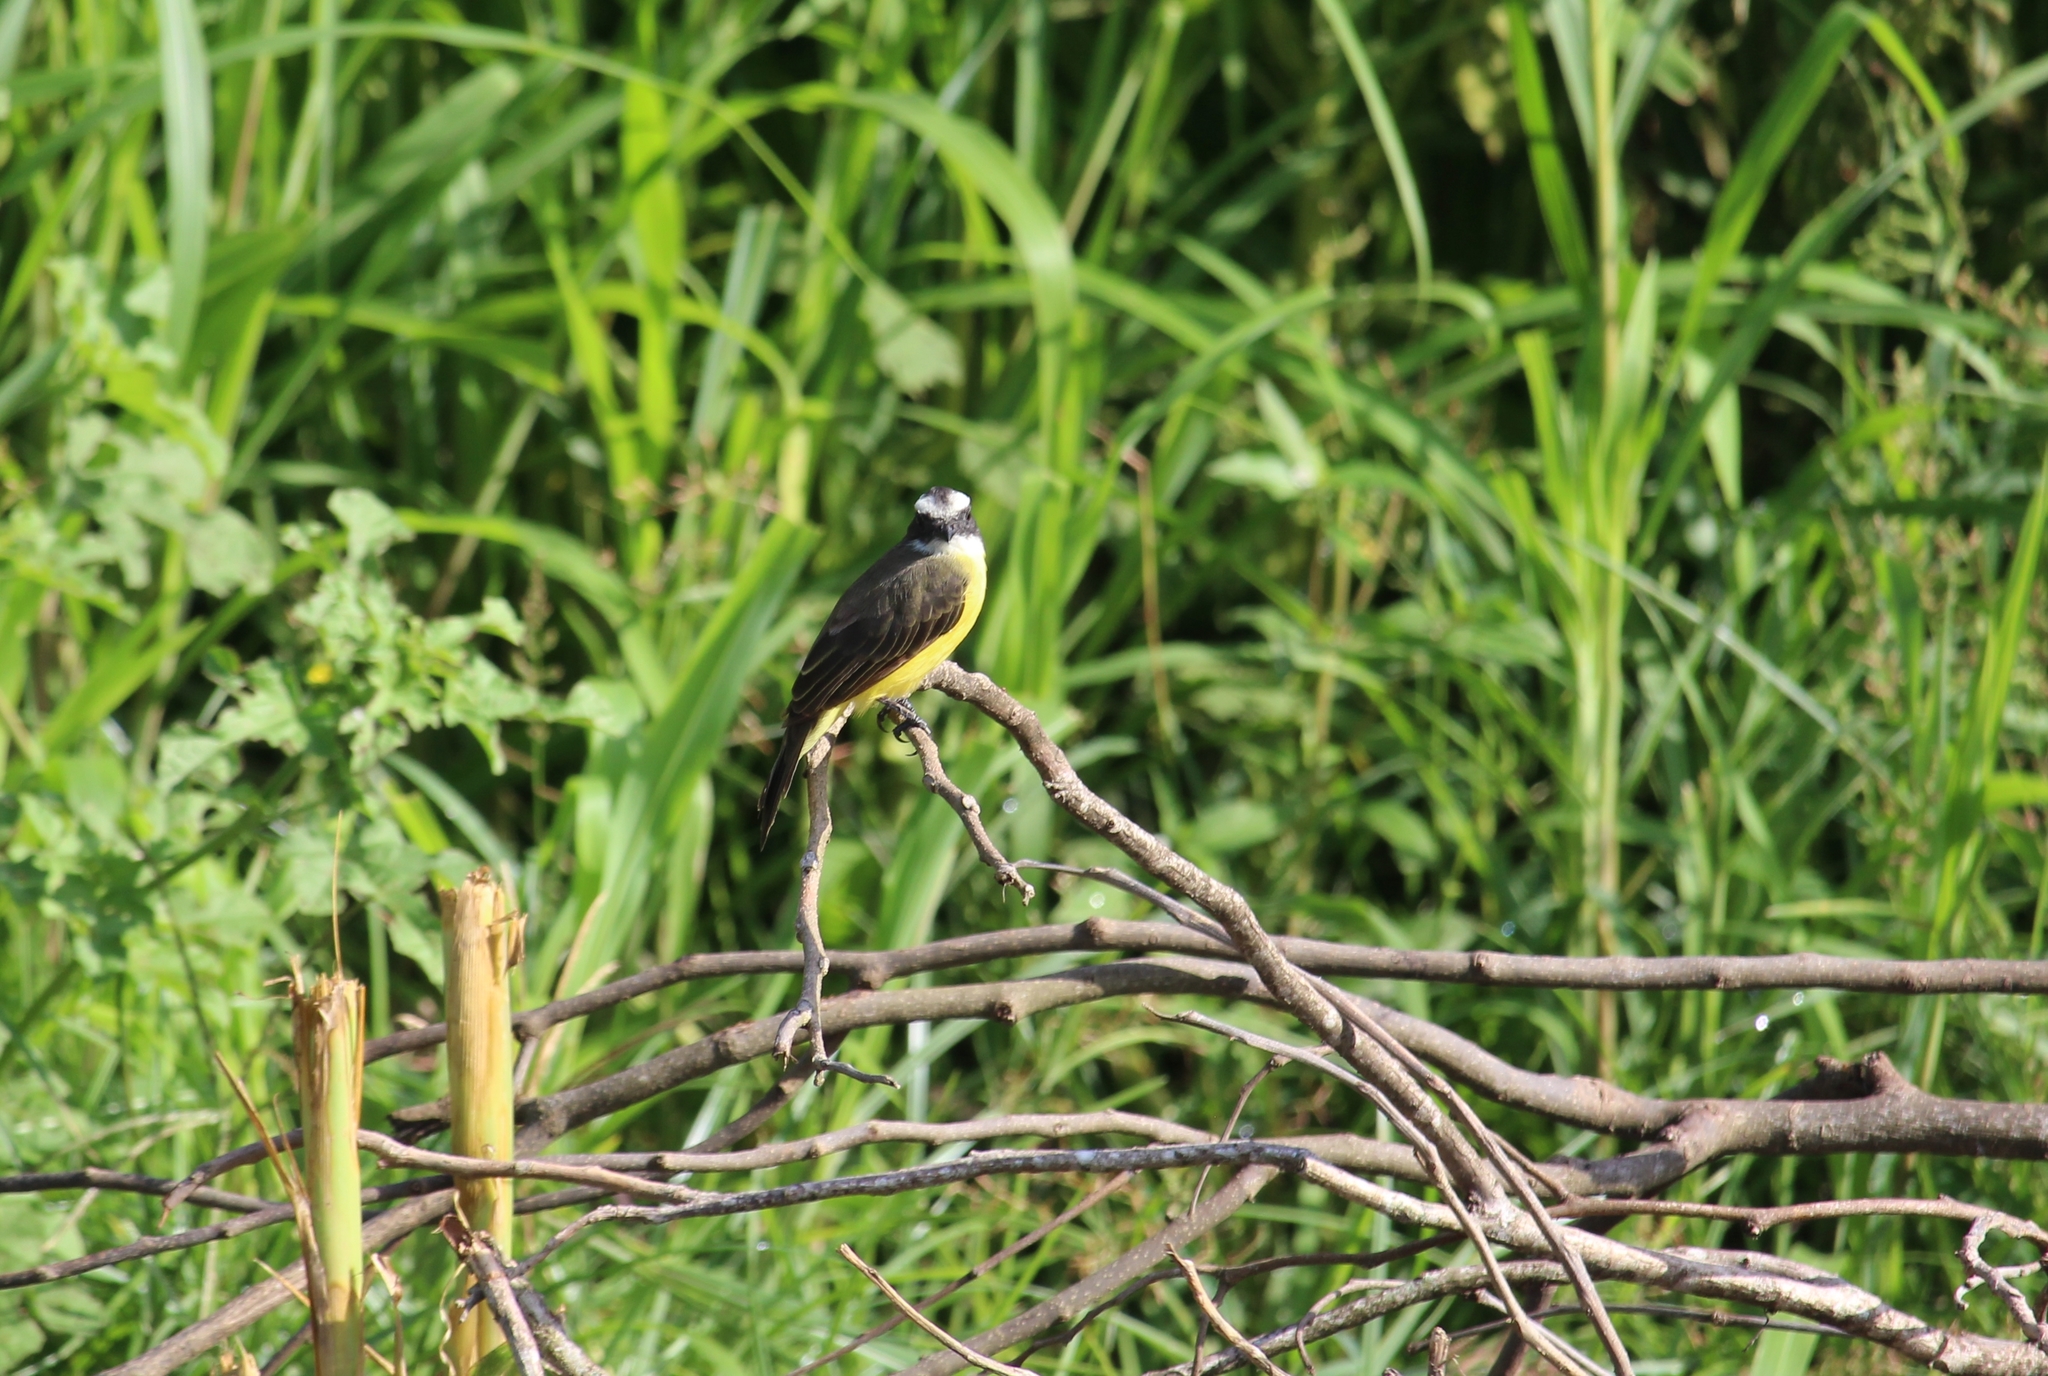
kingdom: Animalia
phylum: Chordata
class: Aves
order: Passeriformes
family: Tyrannidae
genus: Myiozetetes
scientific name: Myiozetetes similis
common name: Social flycatcher
